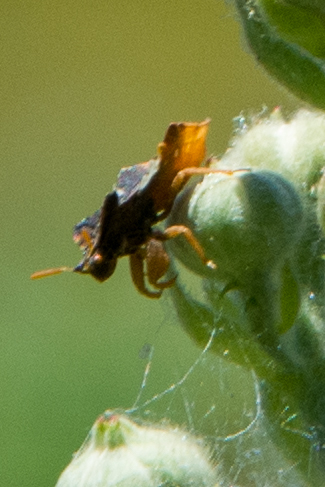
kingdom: Animalia
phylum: Arthropoda
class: Insecta
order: Hemiptera
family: Reduviidae
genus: Phymata
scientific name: Phymata crassipes
